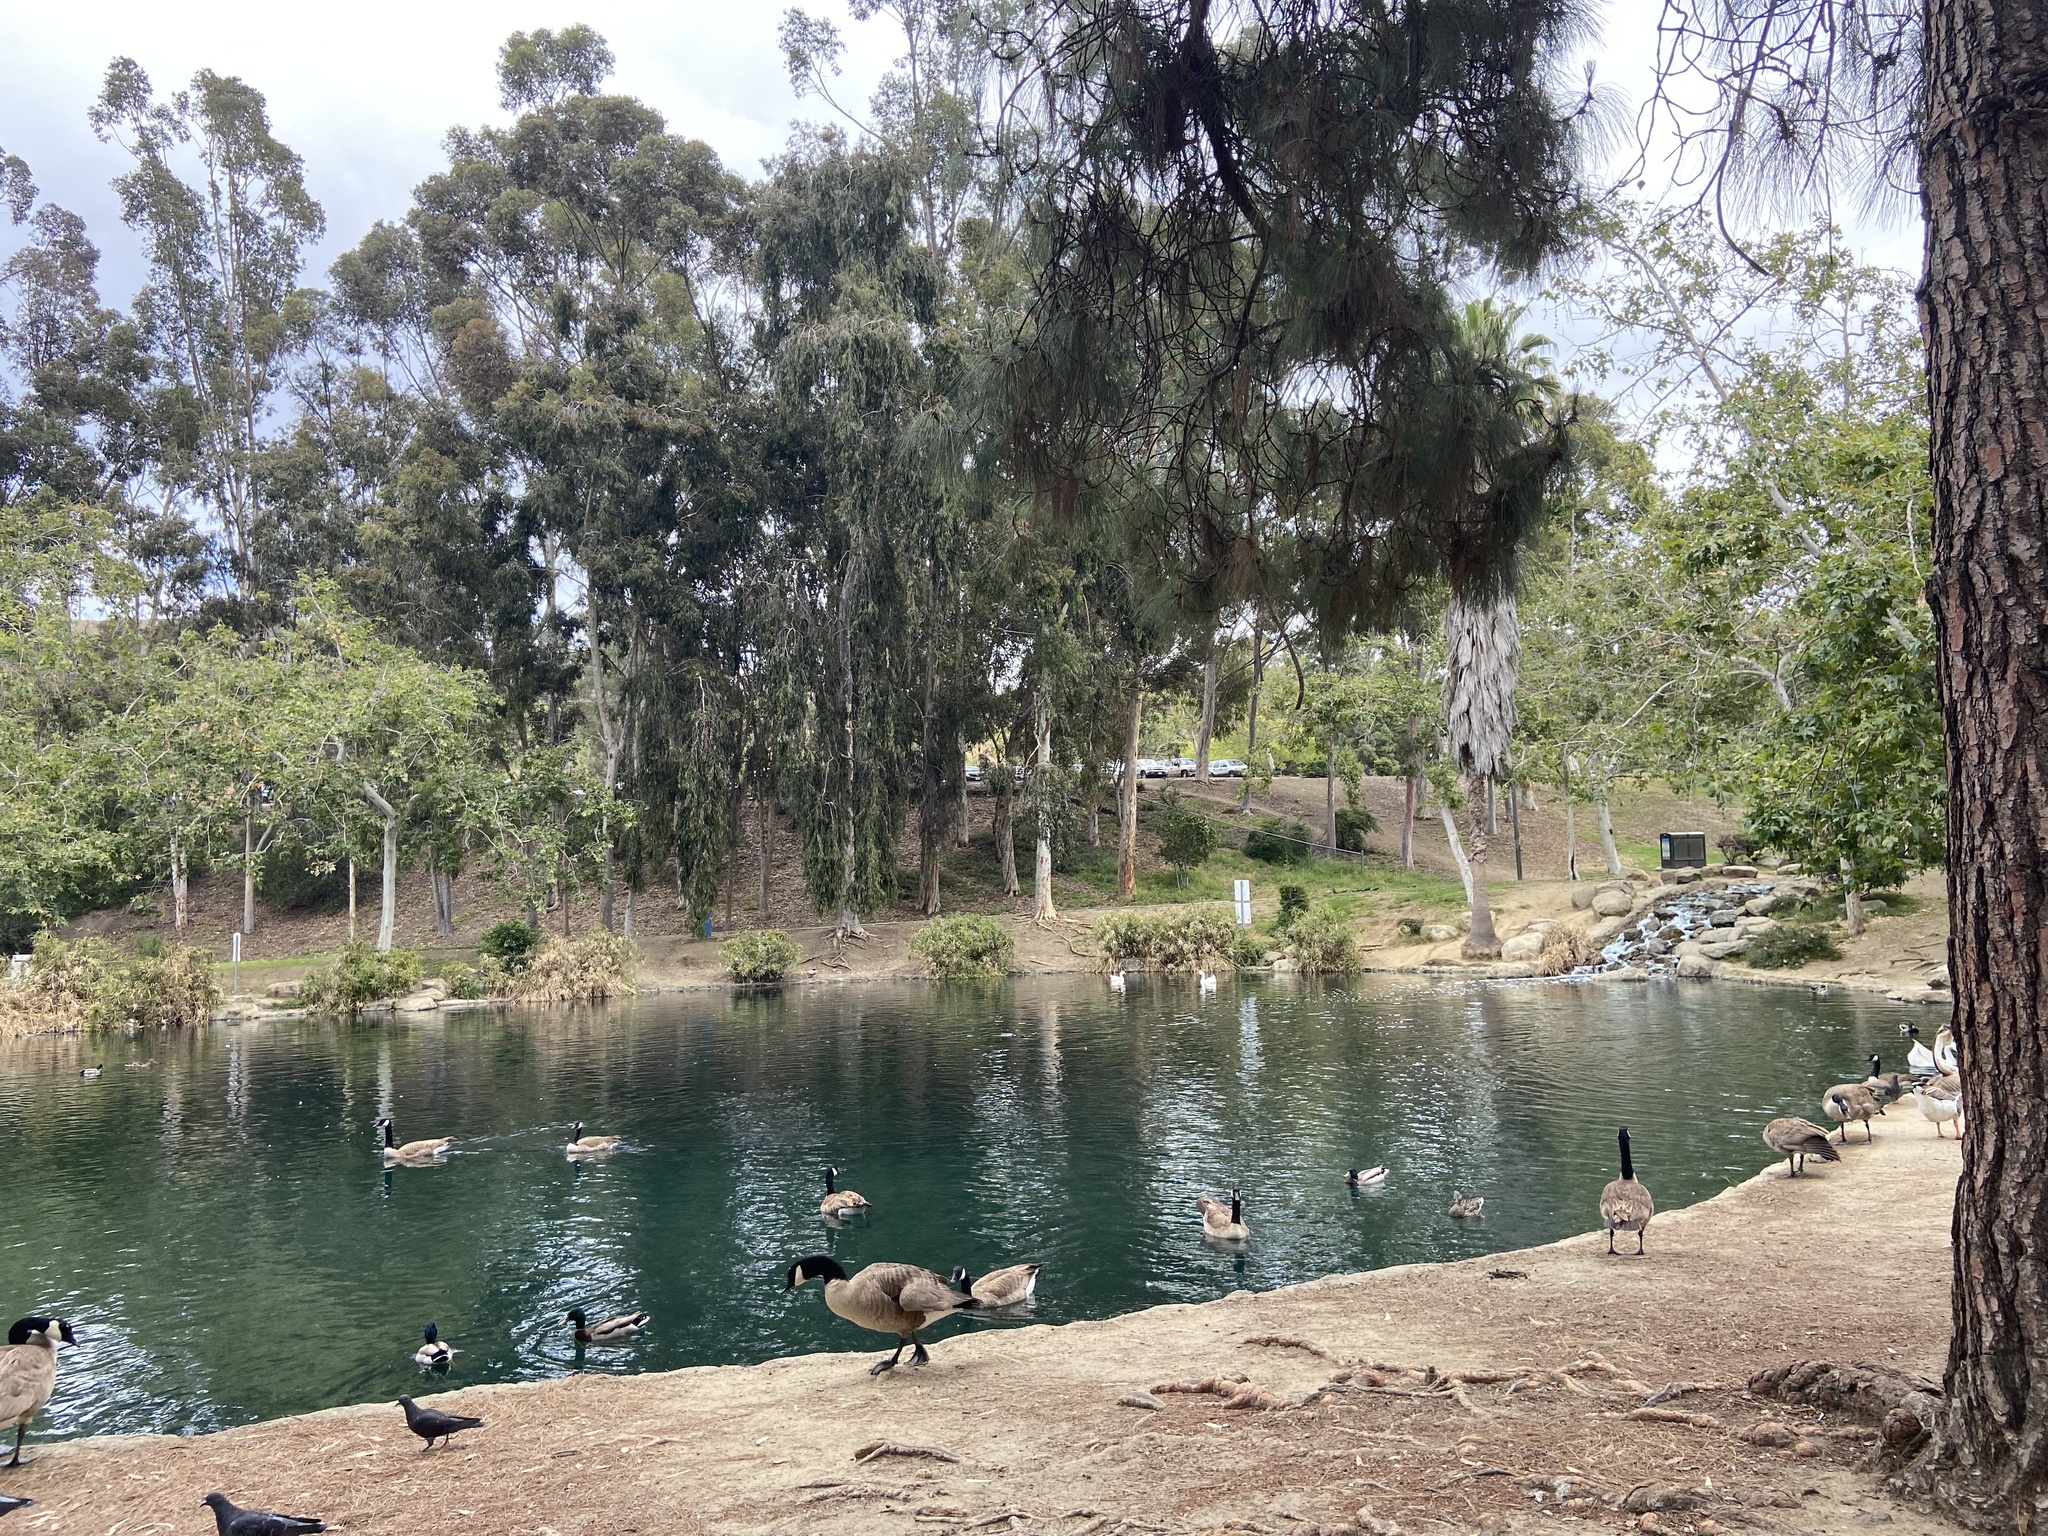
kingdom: Animalia
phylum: Chordata
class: Aves
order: Anseriformes
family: Anatidae
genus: Branta
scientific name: Branta canadensis
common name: Canada goose
